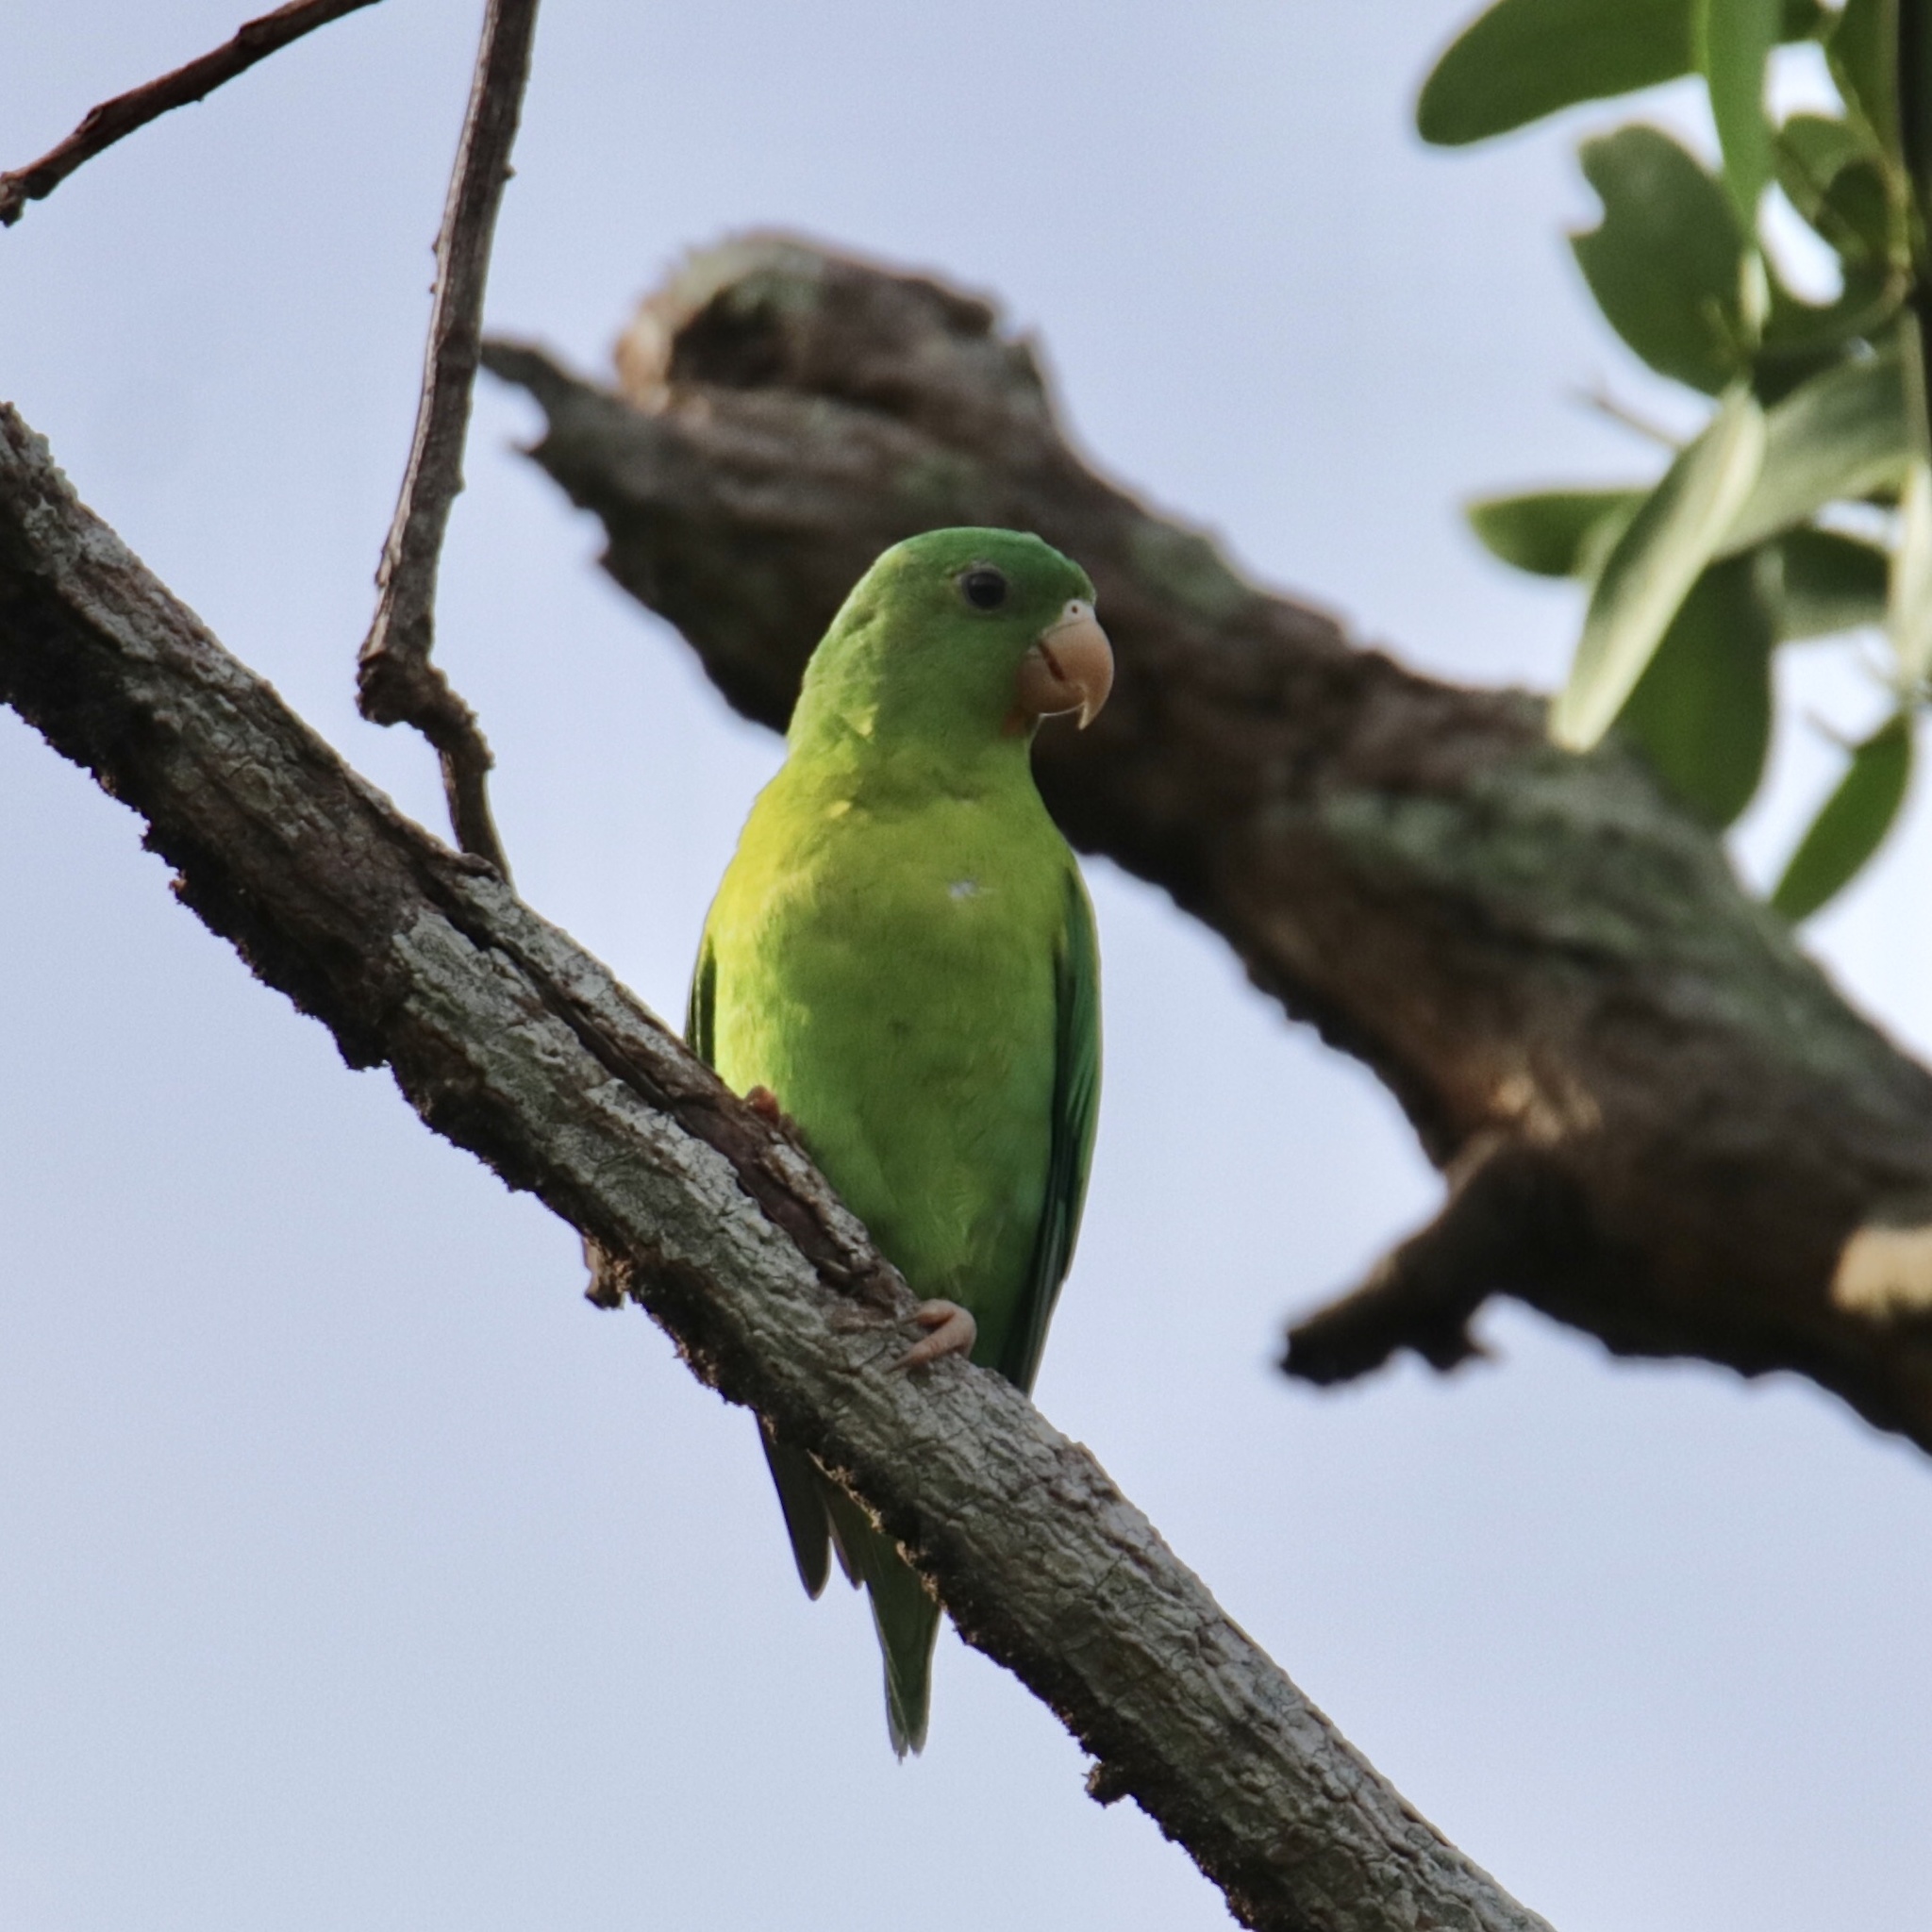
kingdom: Animalia
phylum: Chordata
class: Aves
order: Psittaciformes
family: Psittacidae
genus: Brotogeris
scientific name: Brotogeris jugularis
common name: Orange-chinned parakeet
